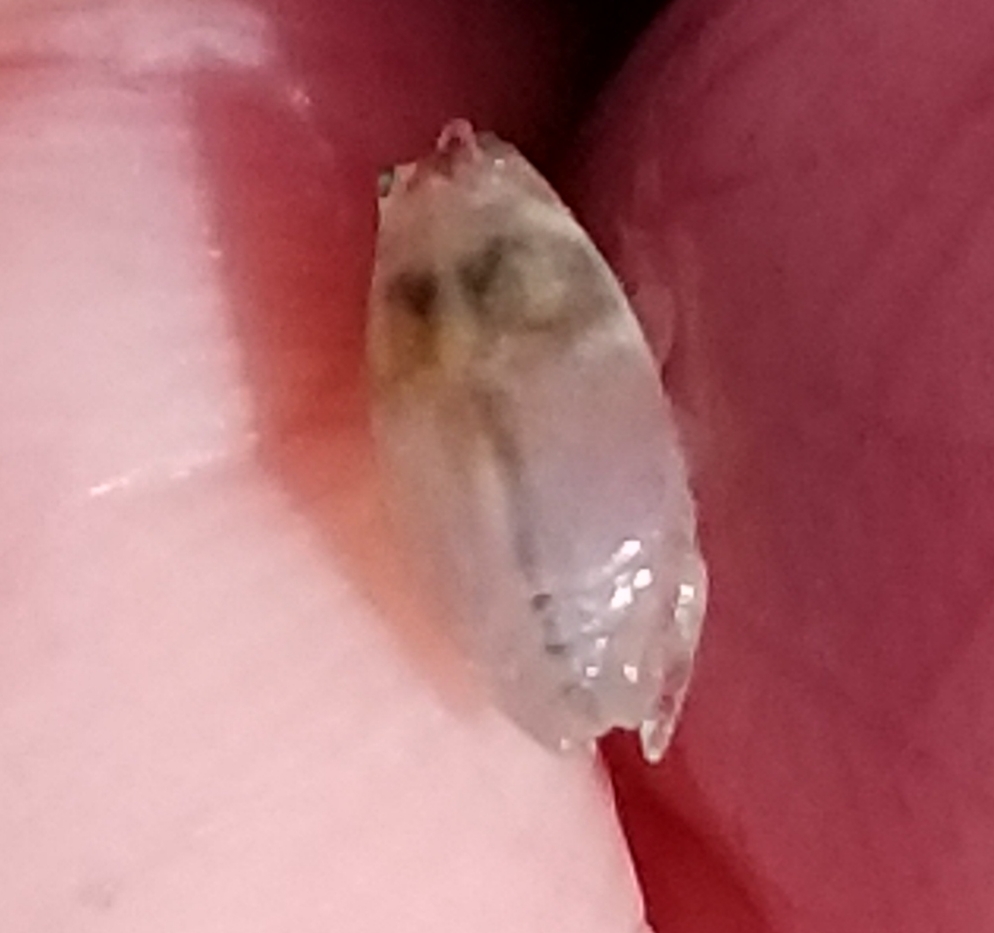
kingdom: Animalia
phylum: Arthropoda
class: Malacostraca
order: Decapoda
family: Hippidae
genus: Emerita
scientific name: Emerita analoga
